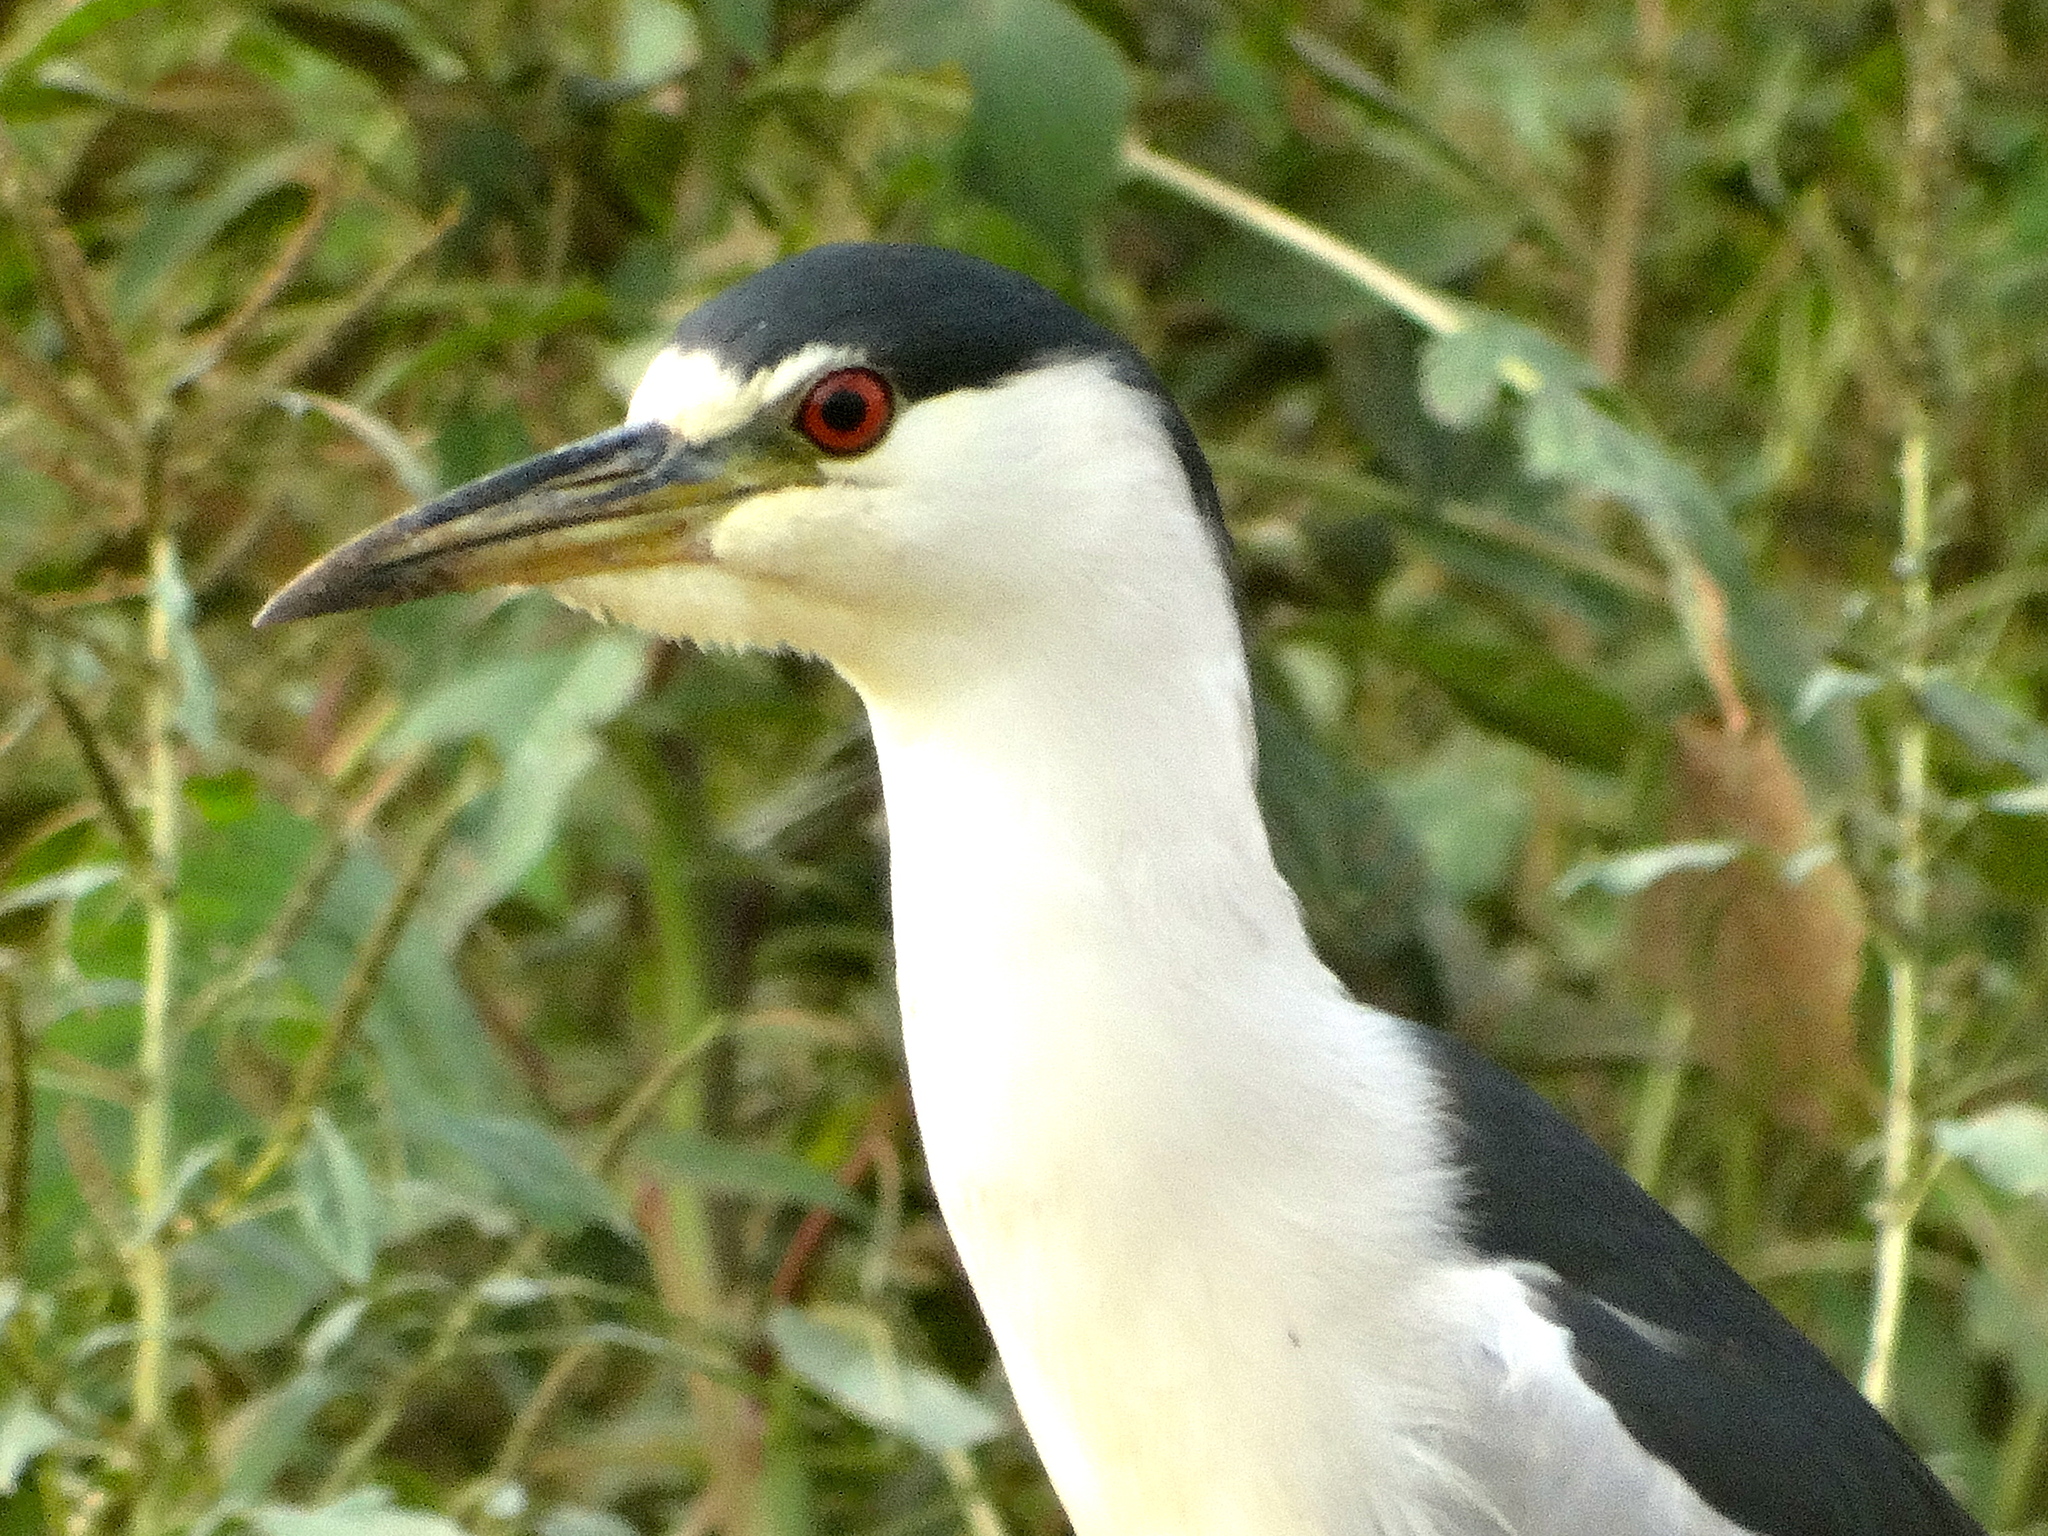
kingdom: Animalia
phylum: Chordata
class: Aves
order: Pelecaniformes
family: Ardeidae
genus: Nycticorax
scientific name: Nycticorax nycticorax
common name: Black-crowned night heron
